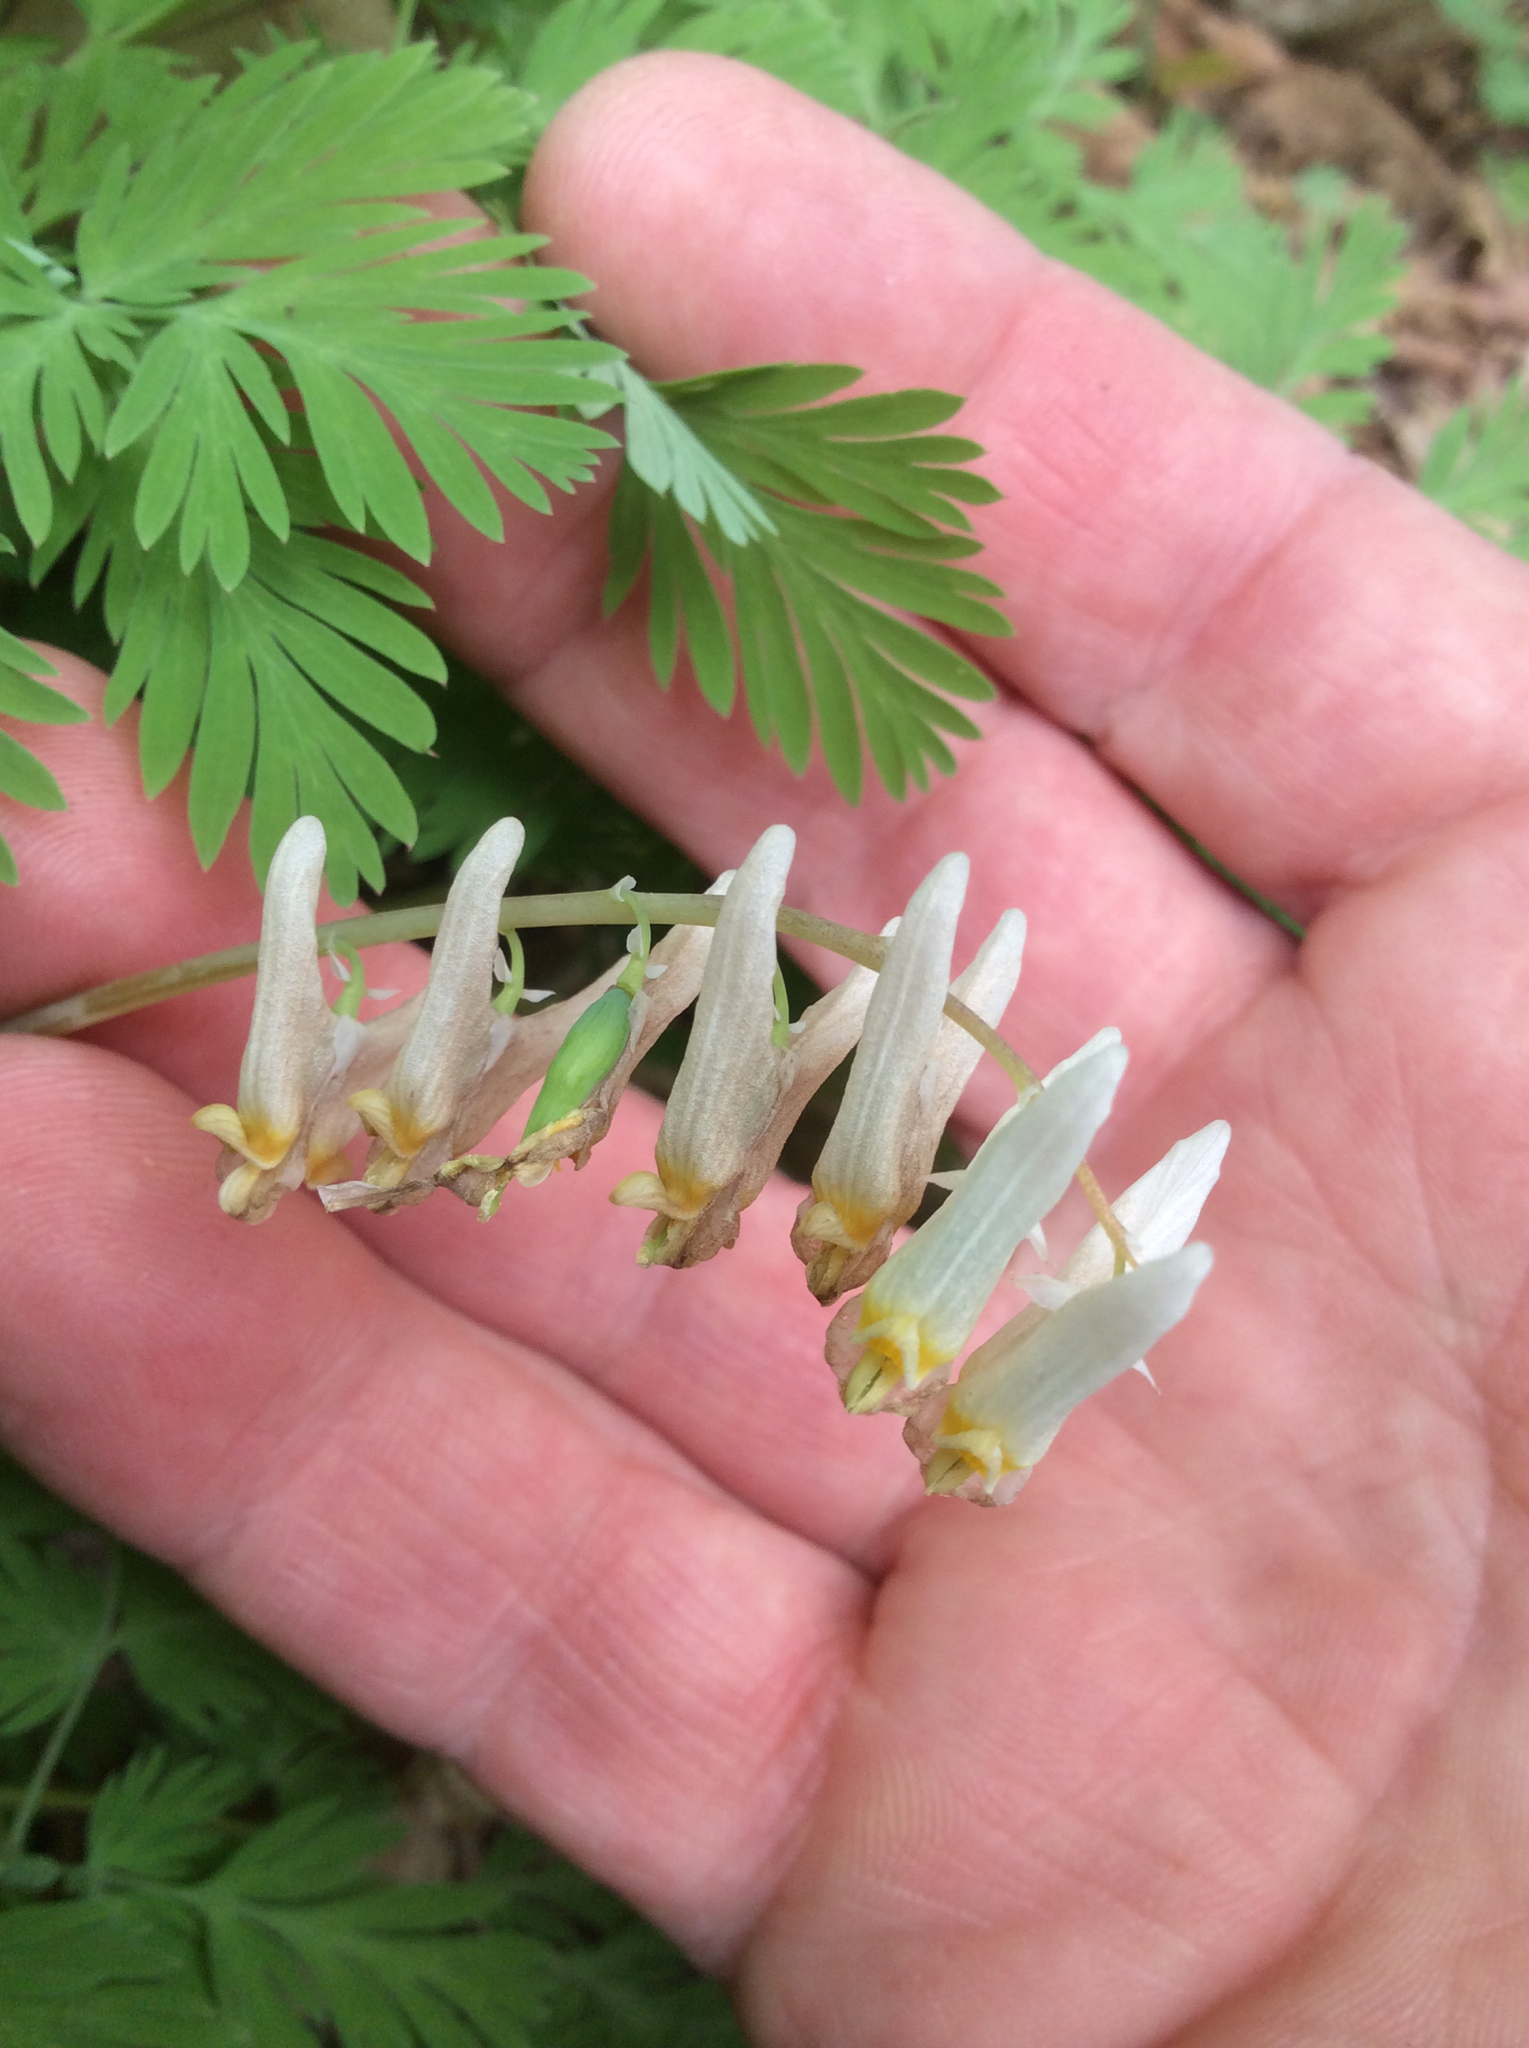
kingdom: Plantae
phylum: Tracheophyta
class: Magnoliopsida
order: Ranunculales
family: Papaveraceae
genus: Dicentra
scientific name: Dicentra cucullaria
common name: Dutchman's breeches
